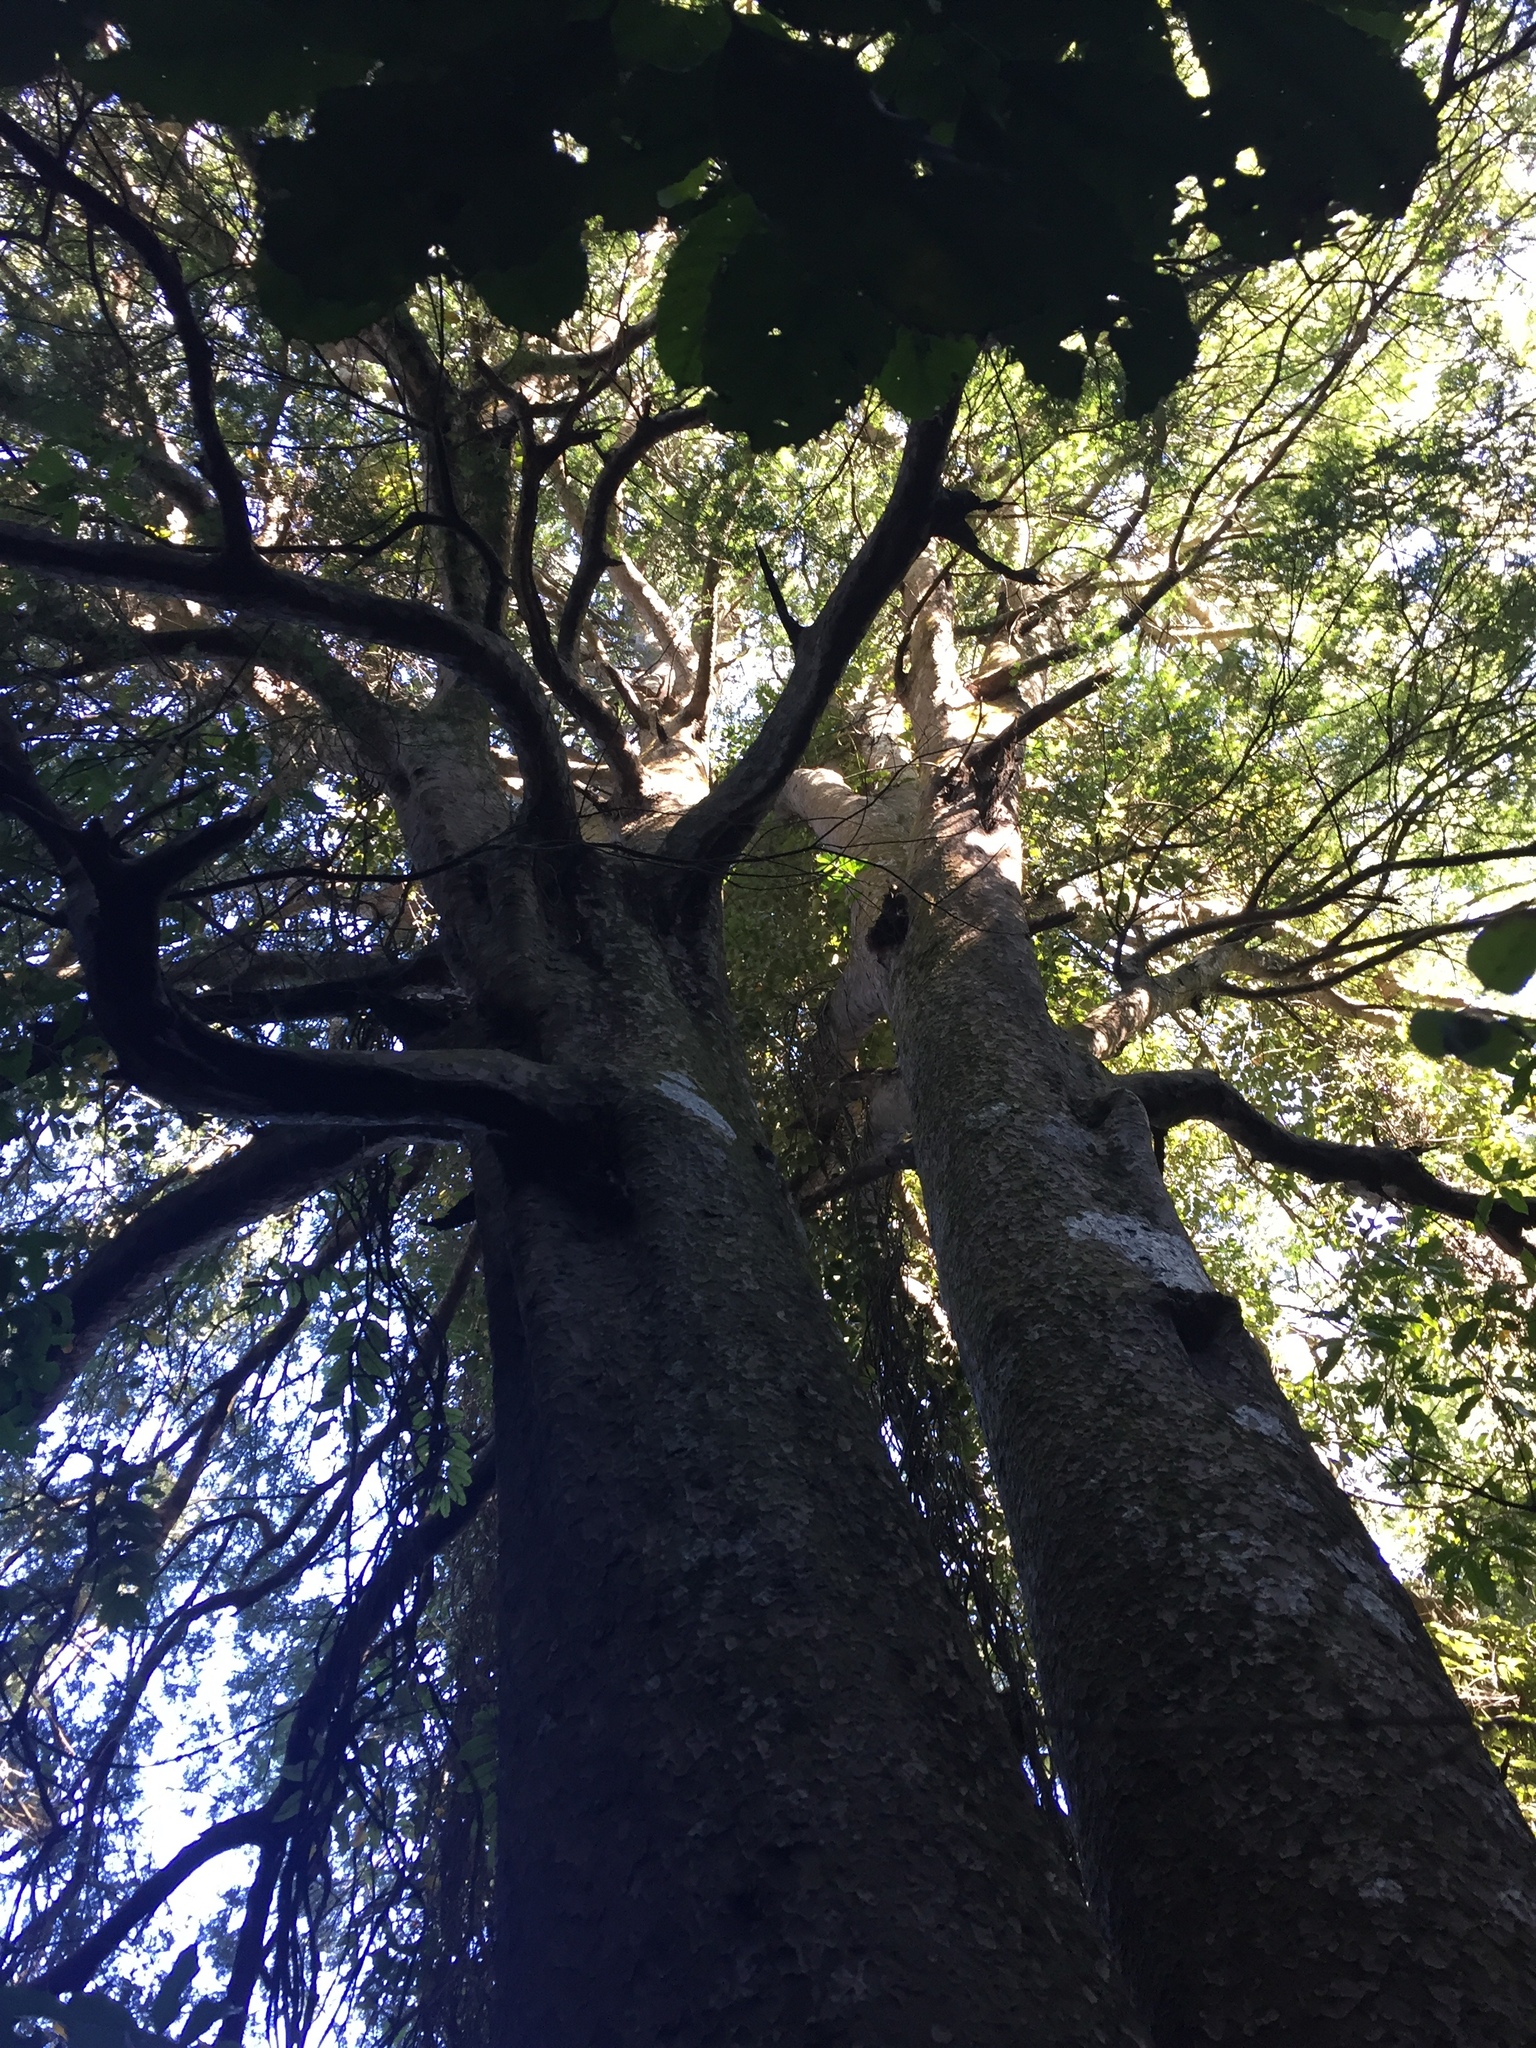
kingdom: Plantae
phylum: Tracheophyta
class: Pinopsida
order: Pinales
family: Podocarpaceae
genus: Prumnopitys
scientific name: Prumnopitys taxifolia
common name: Matai
